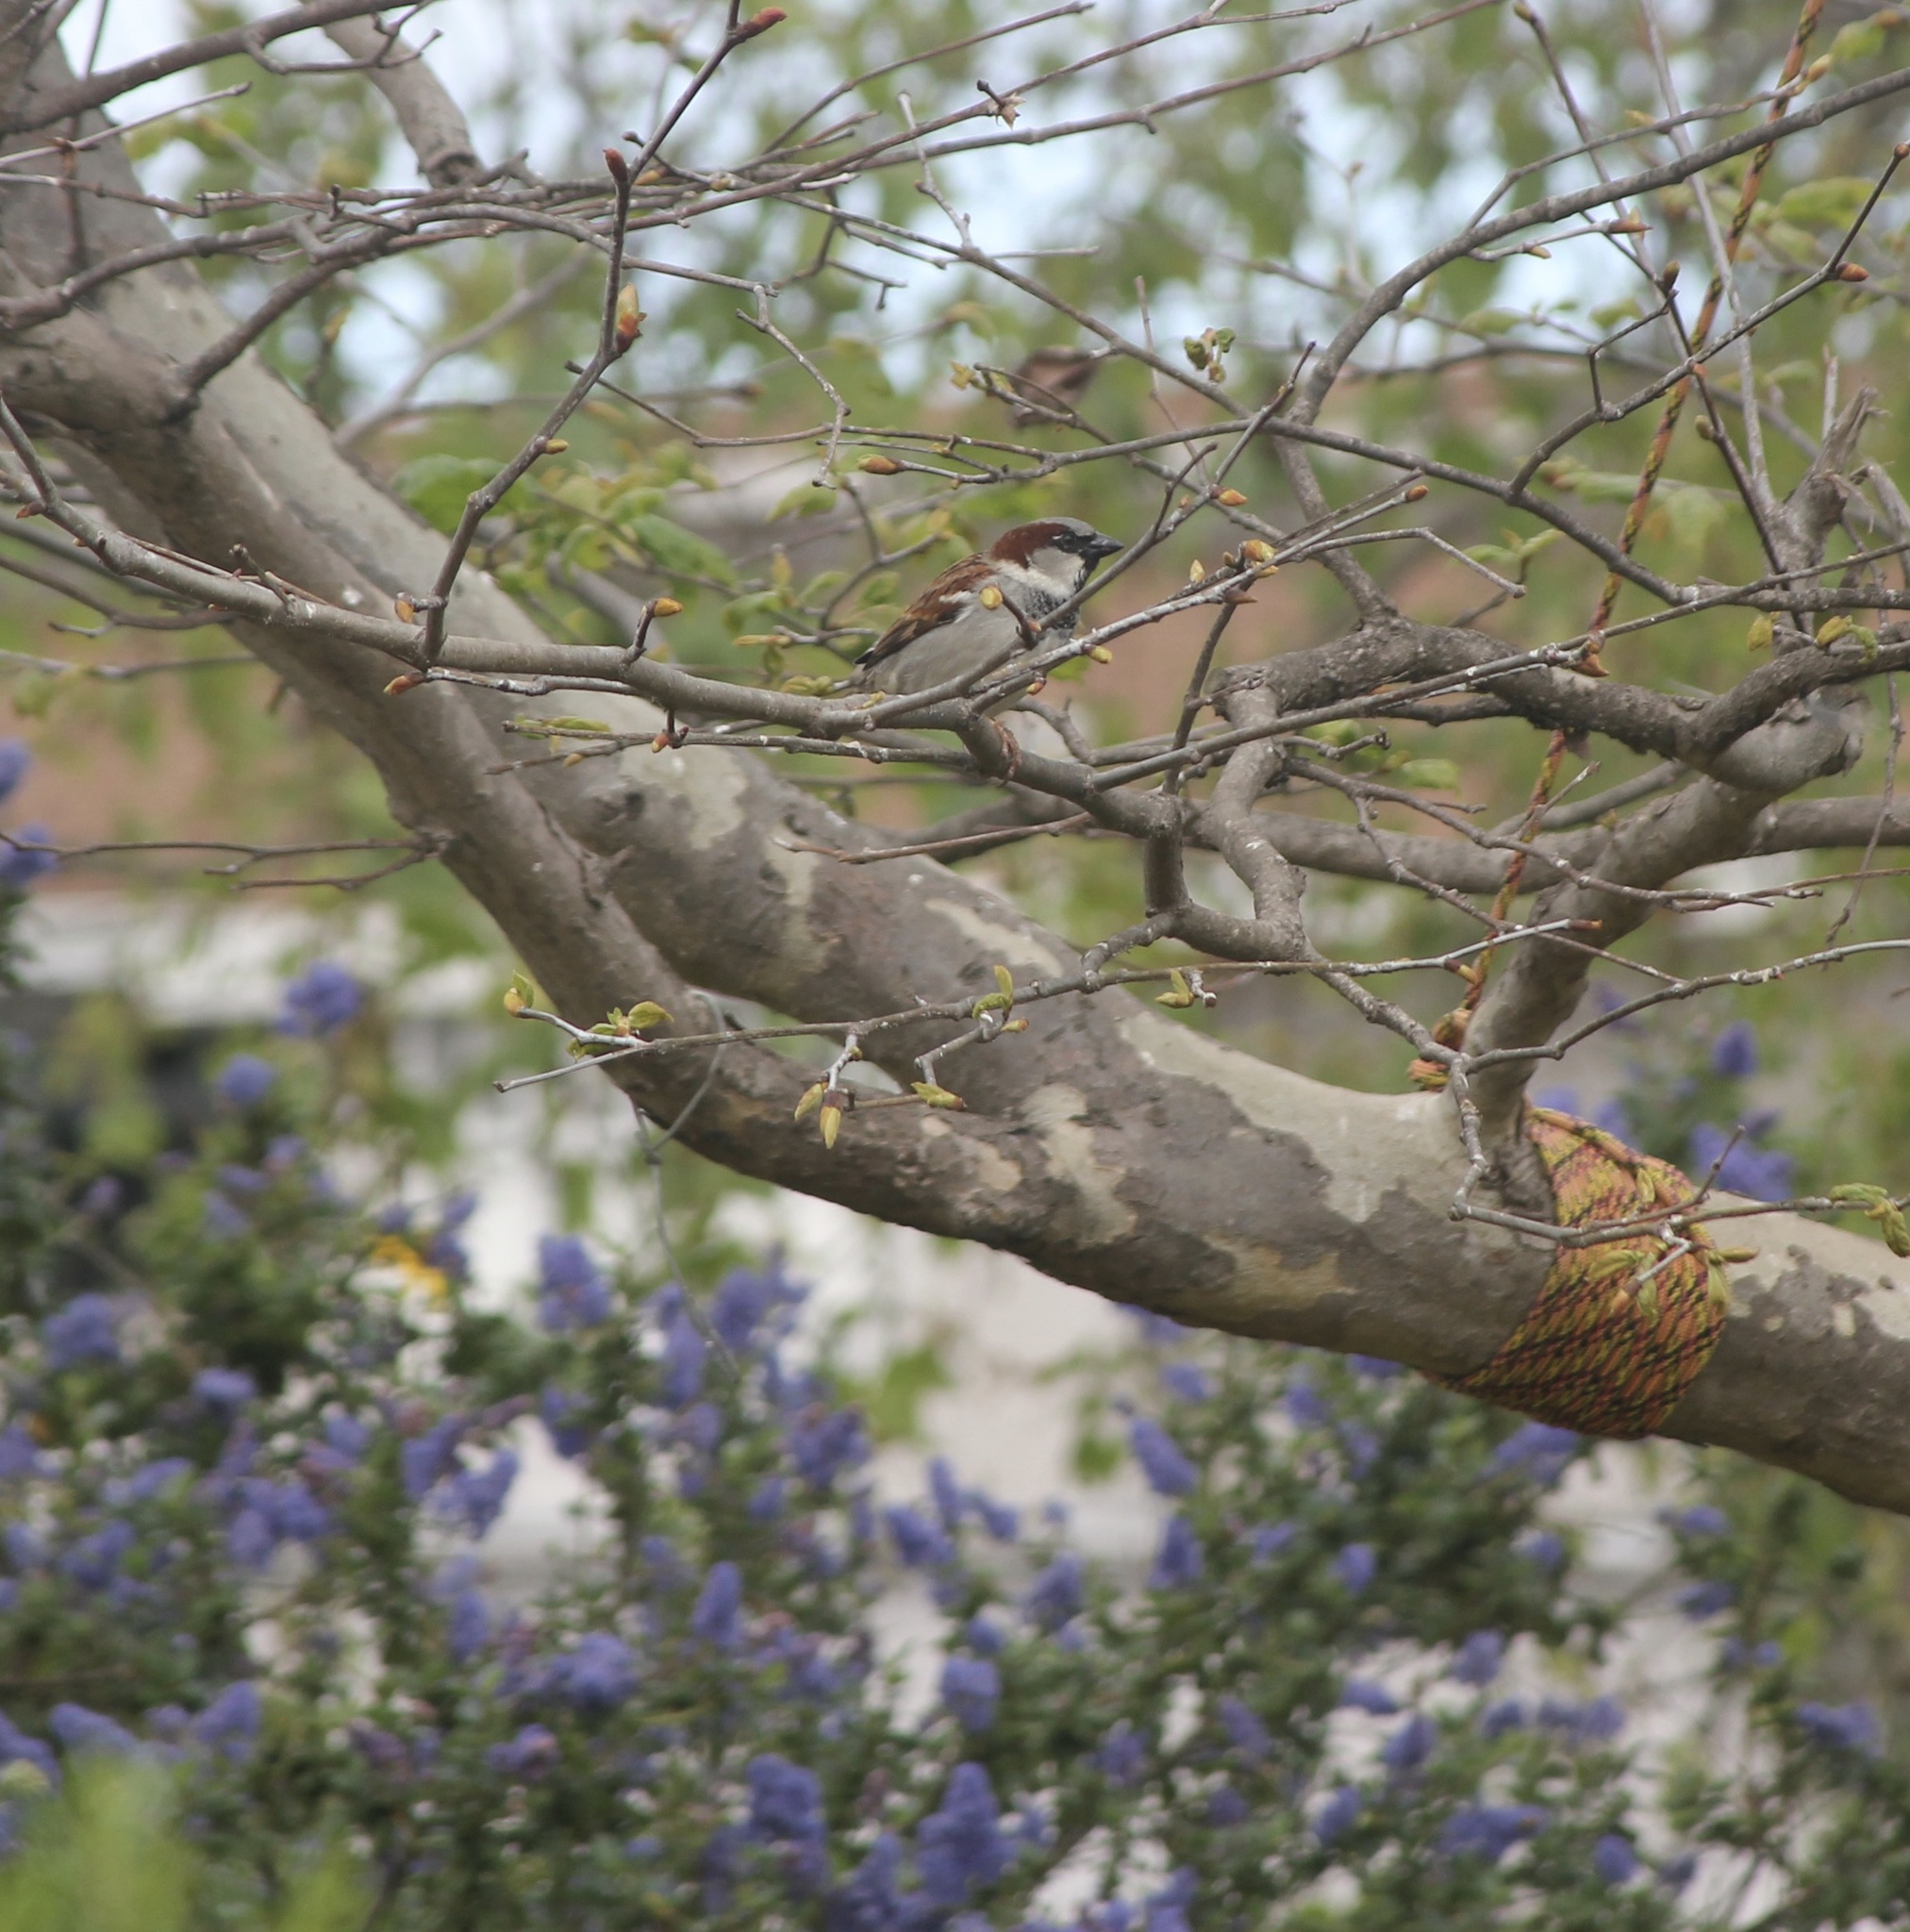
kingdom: Animalia
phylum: Chordata
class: Aves
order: Passeriformes
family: Passeridae
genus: Passer
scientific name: Passer domesticus
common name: House sparrow
